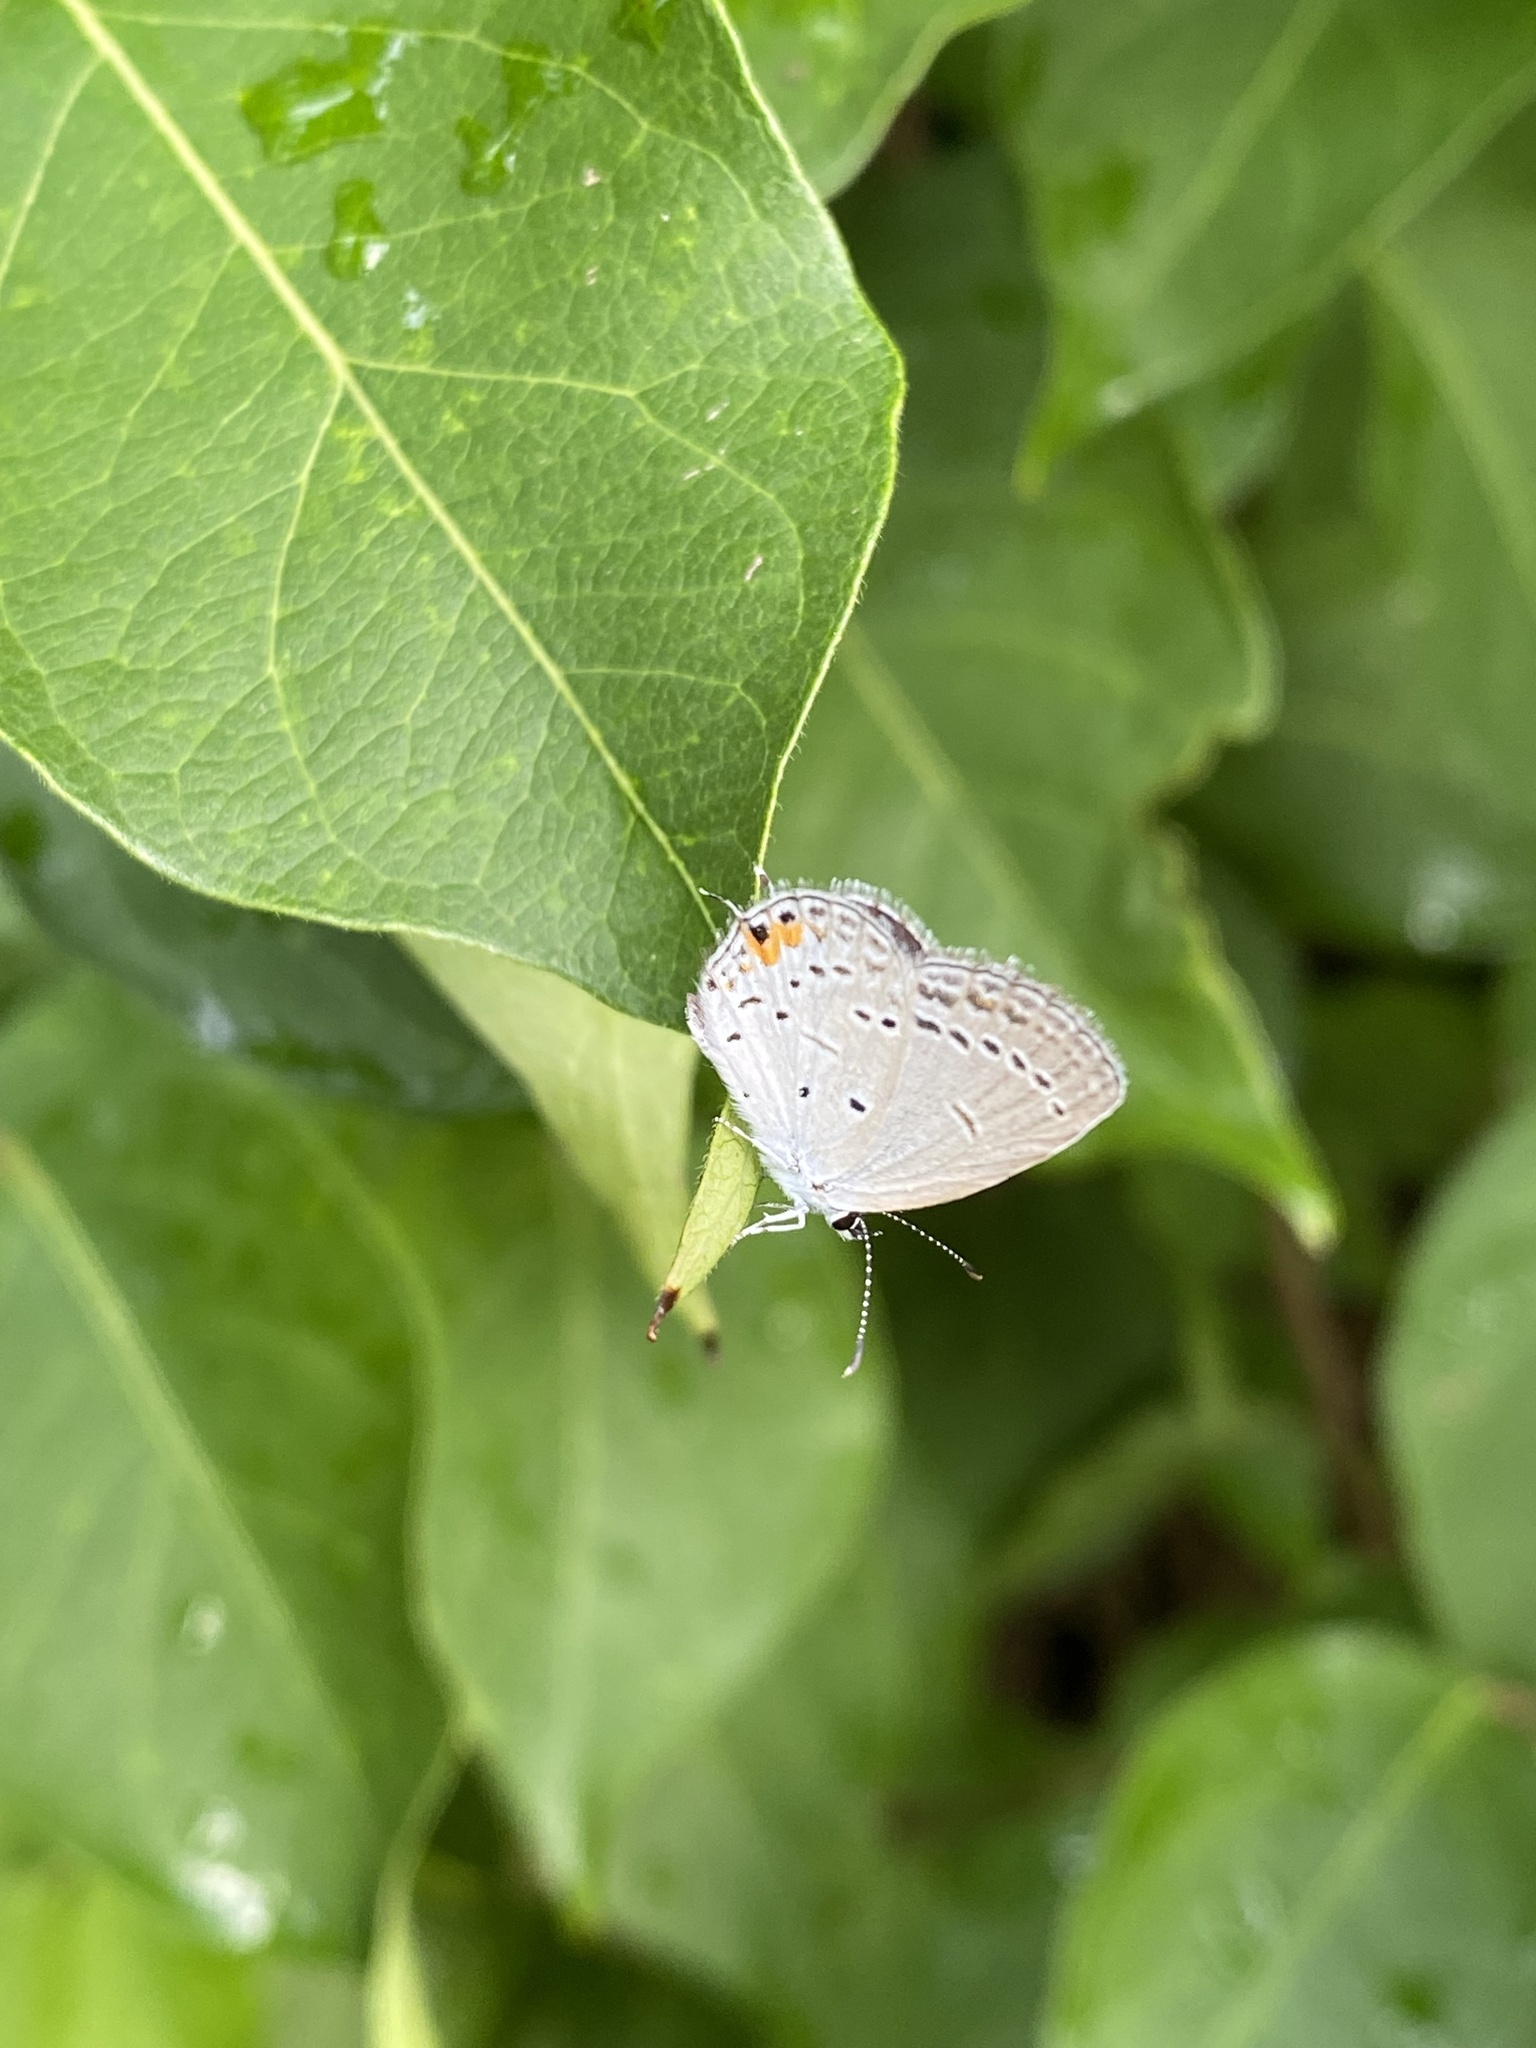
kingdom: Animalia
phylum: Arthropoda
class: Insecta
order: Lepidoptera
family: Lycaenidae
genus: Elkalyce
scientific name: Elkalyce comyntas
